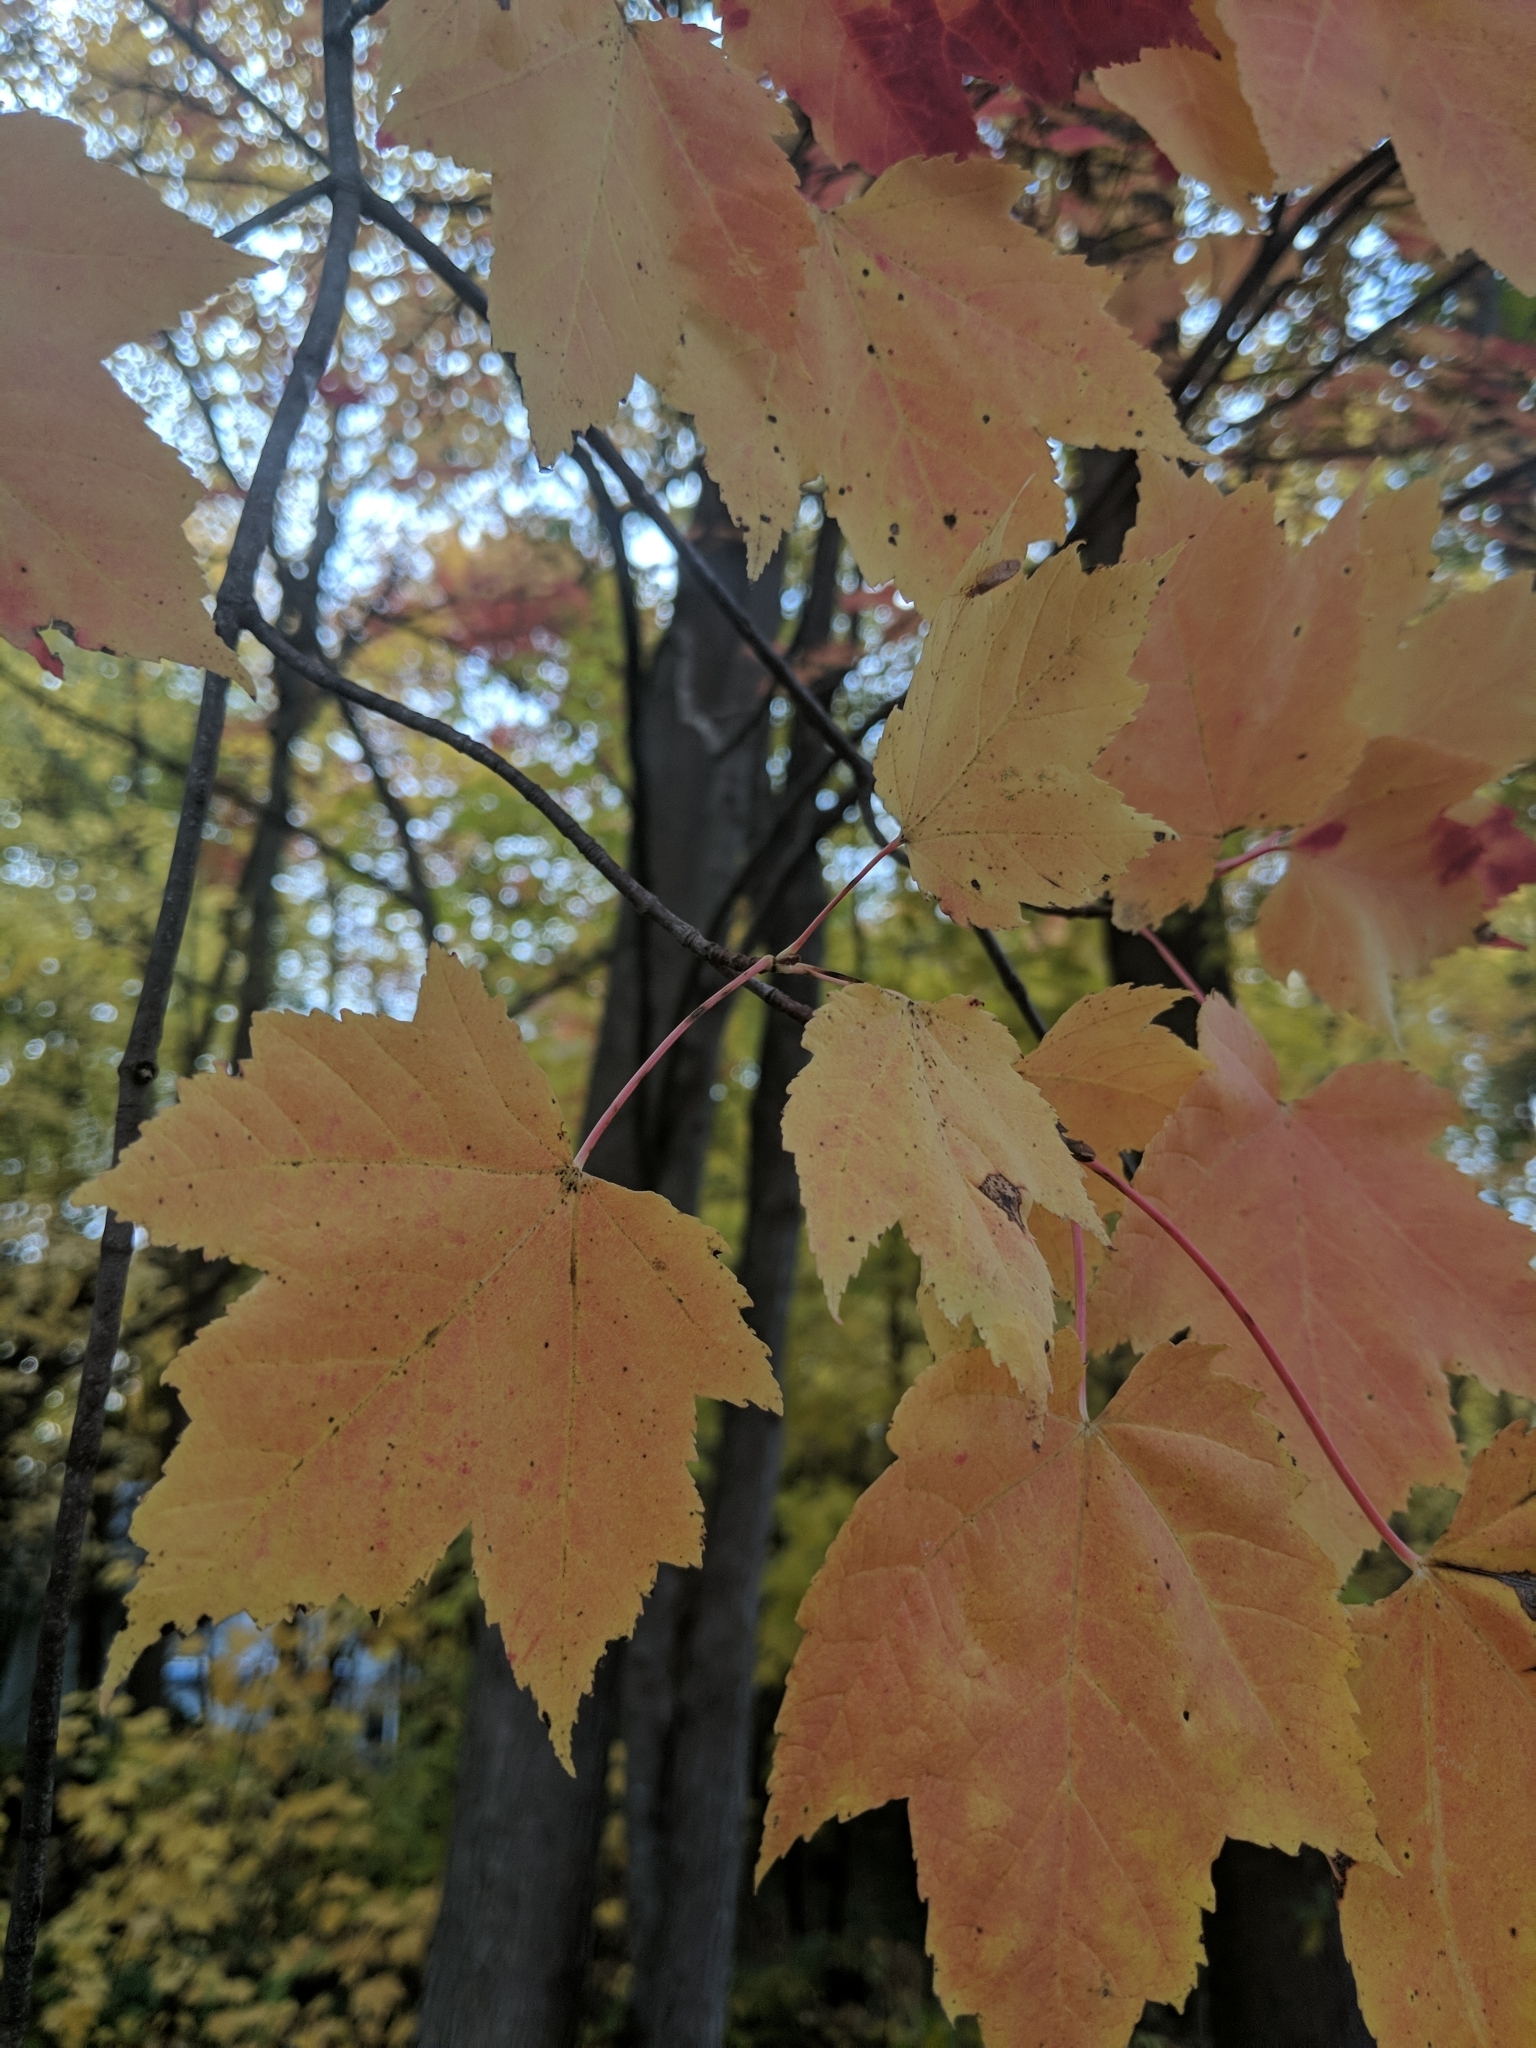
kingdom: Plantae
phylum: Tracheophyta
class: Magnoliopsida
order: Sapindales
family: Sapindaceae
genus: Acer
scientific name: Acer rubrum
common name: Red maple
